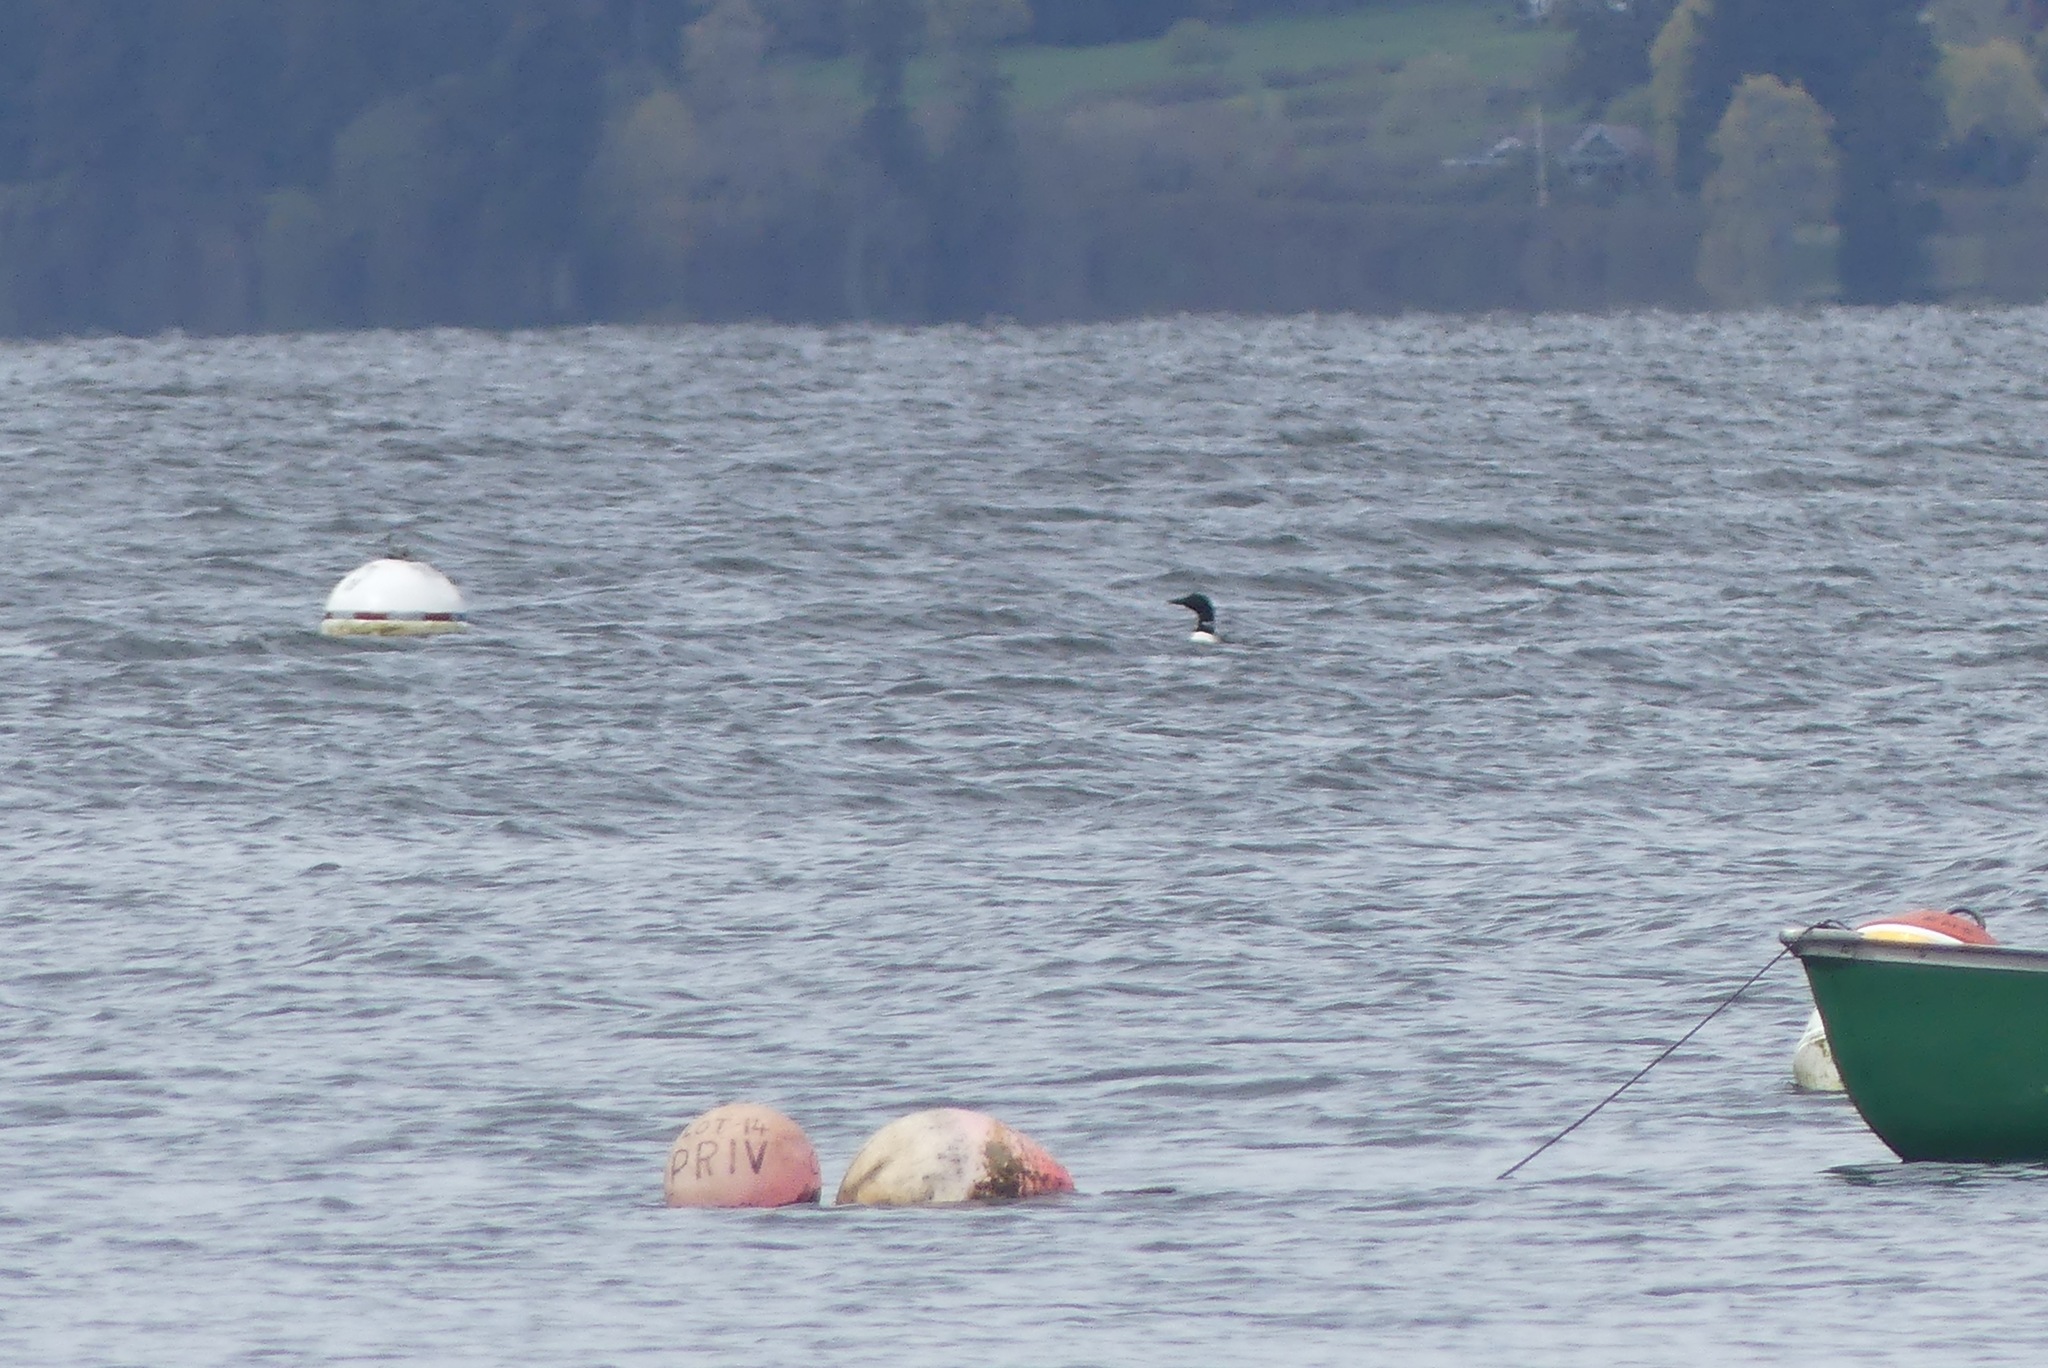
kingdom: Animalia
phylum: Chordata
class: Aves
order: Gaviiformes
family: Gaviidae
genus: Gavia
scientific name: Gavia immer
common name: Common loon
